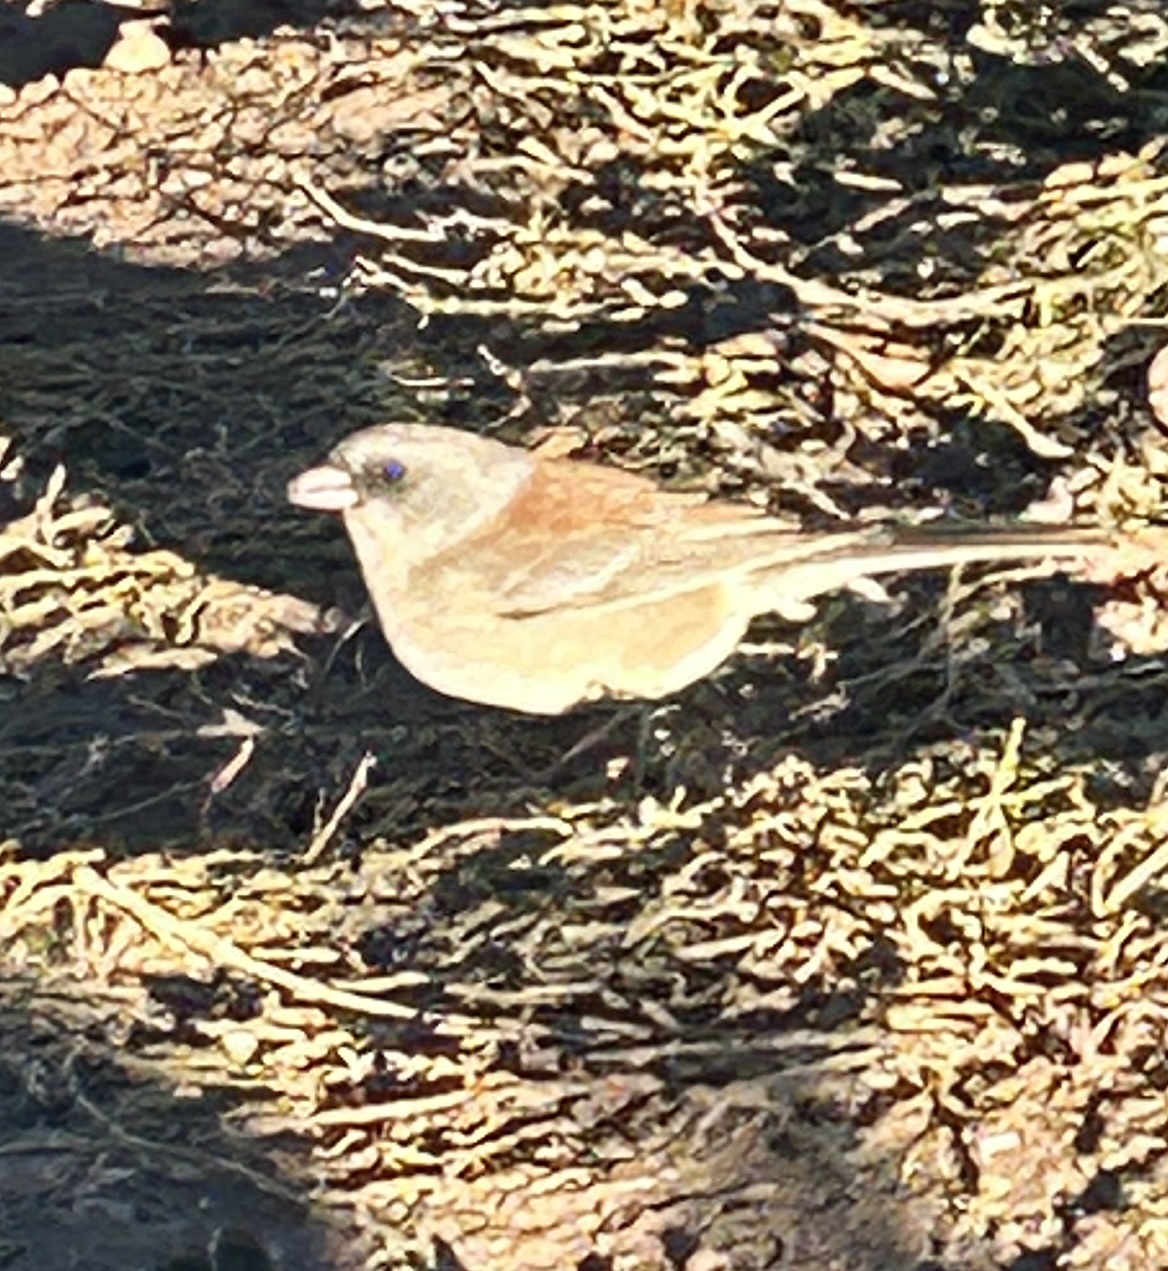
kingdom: Animalia
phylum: Chordata
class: Aves
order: Passeriformes
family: Passerellidae
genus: Junco
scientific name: Junco hyemalis
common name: Dark-eyed junco
